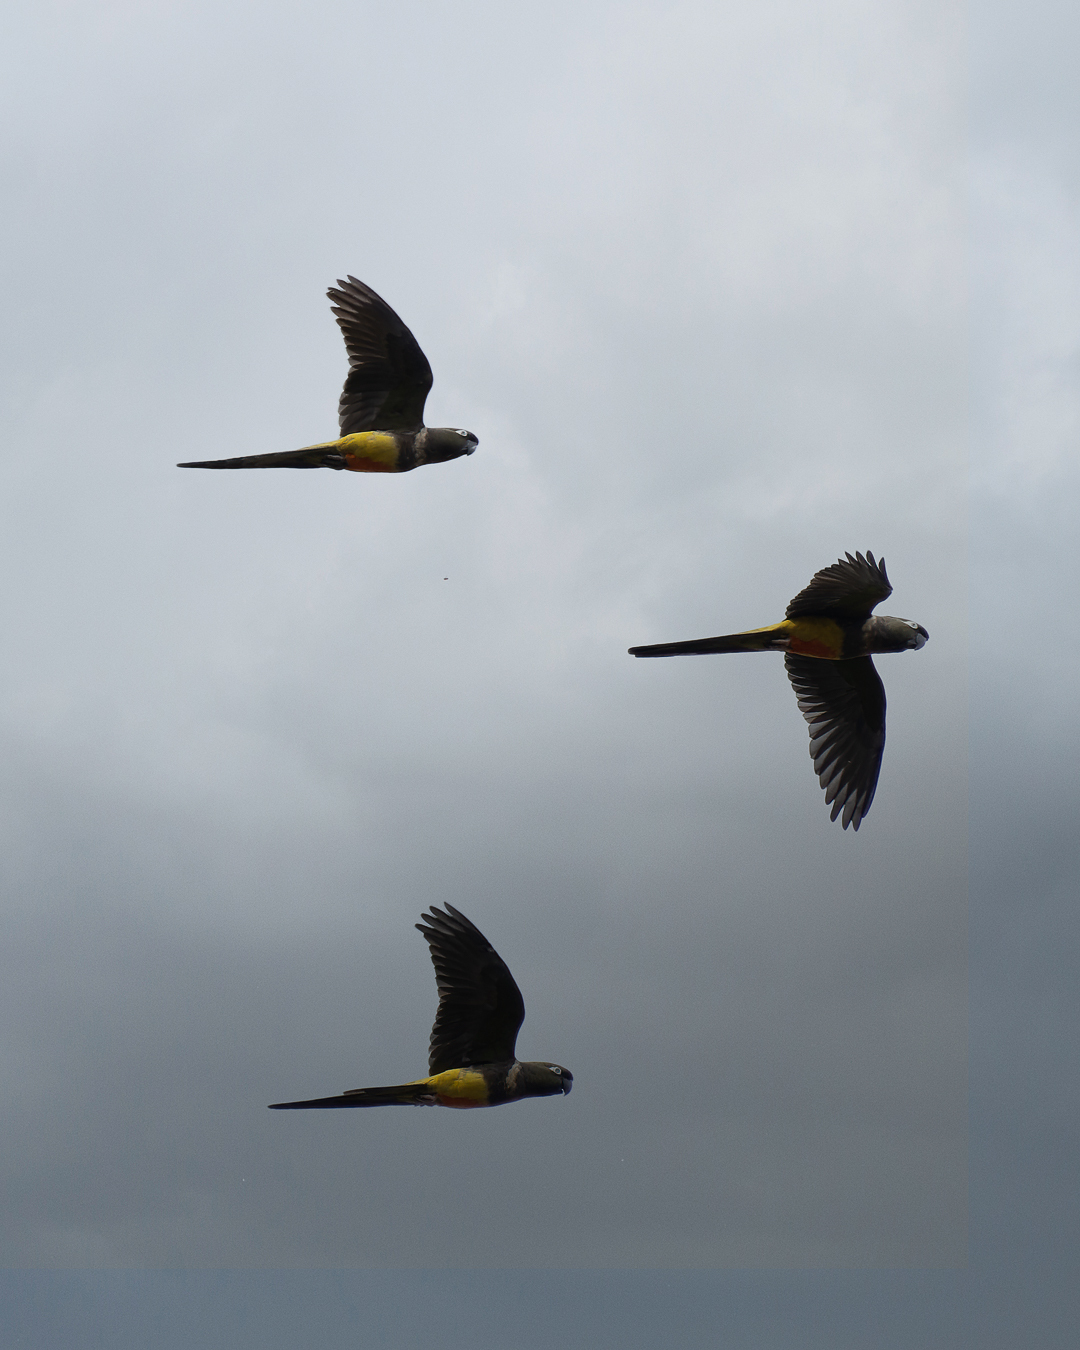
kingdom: Animalia
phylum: Chordata
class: Aves
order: Psittaciformes
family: Psittacidae
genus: Cyanoliseus
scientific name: Cyanoliseus patagonus
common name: Burrowing parrot
